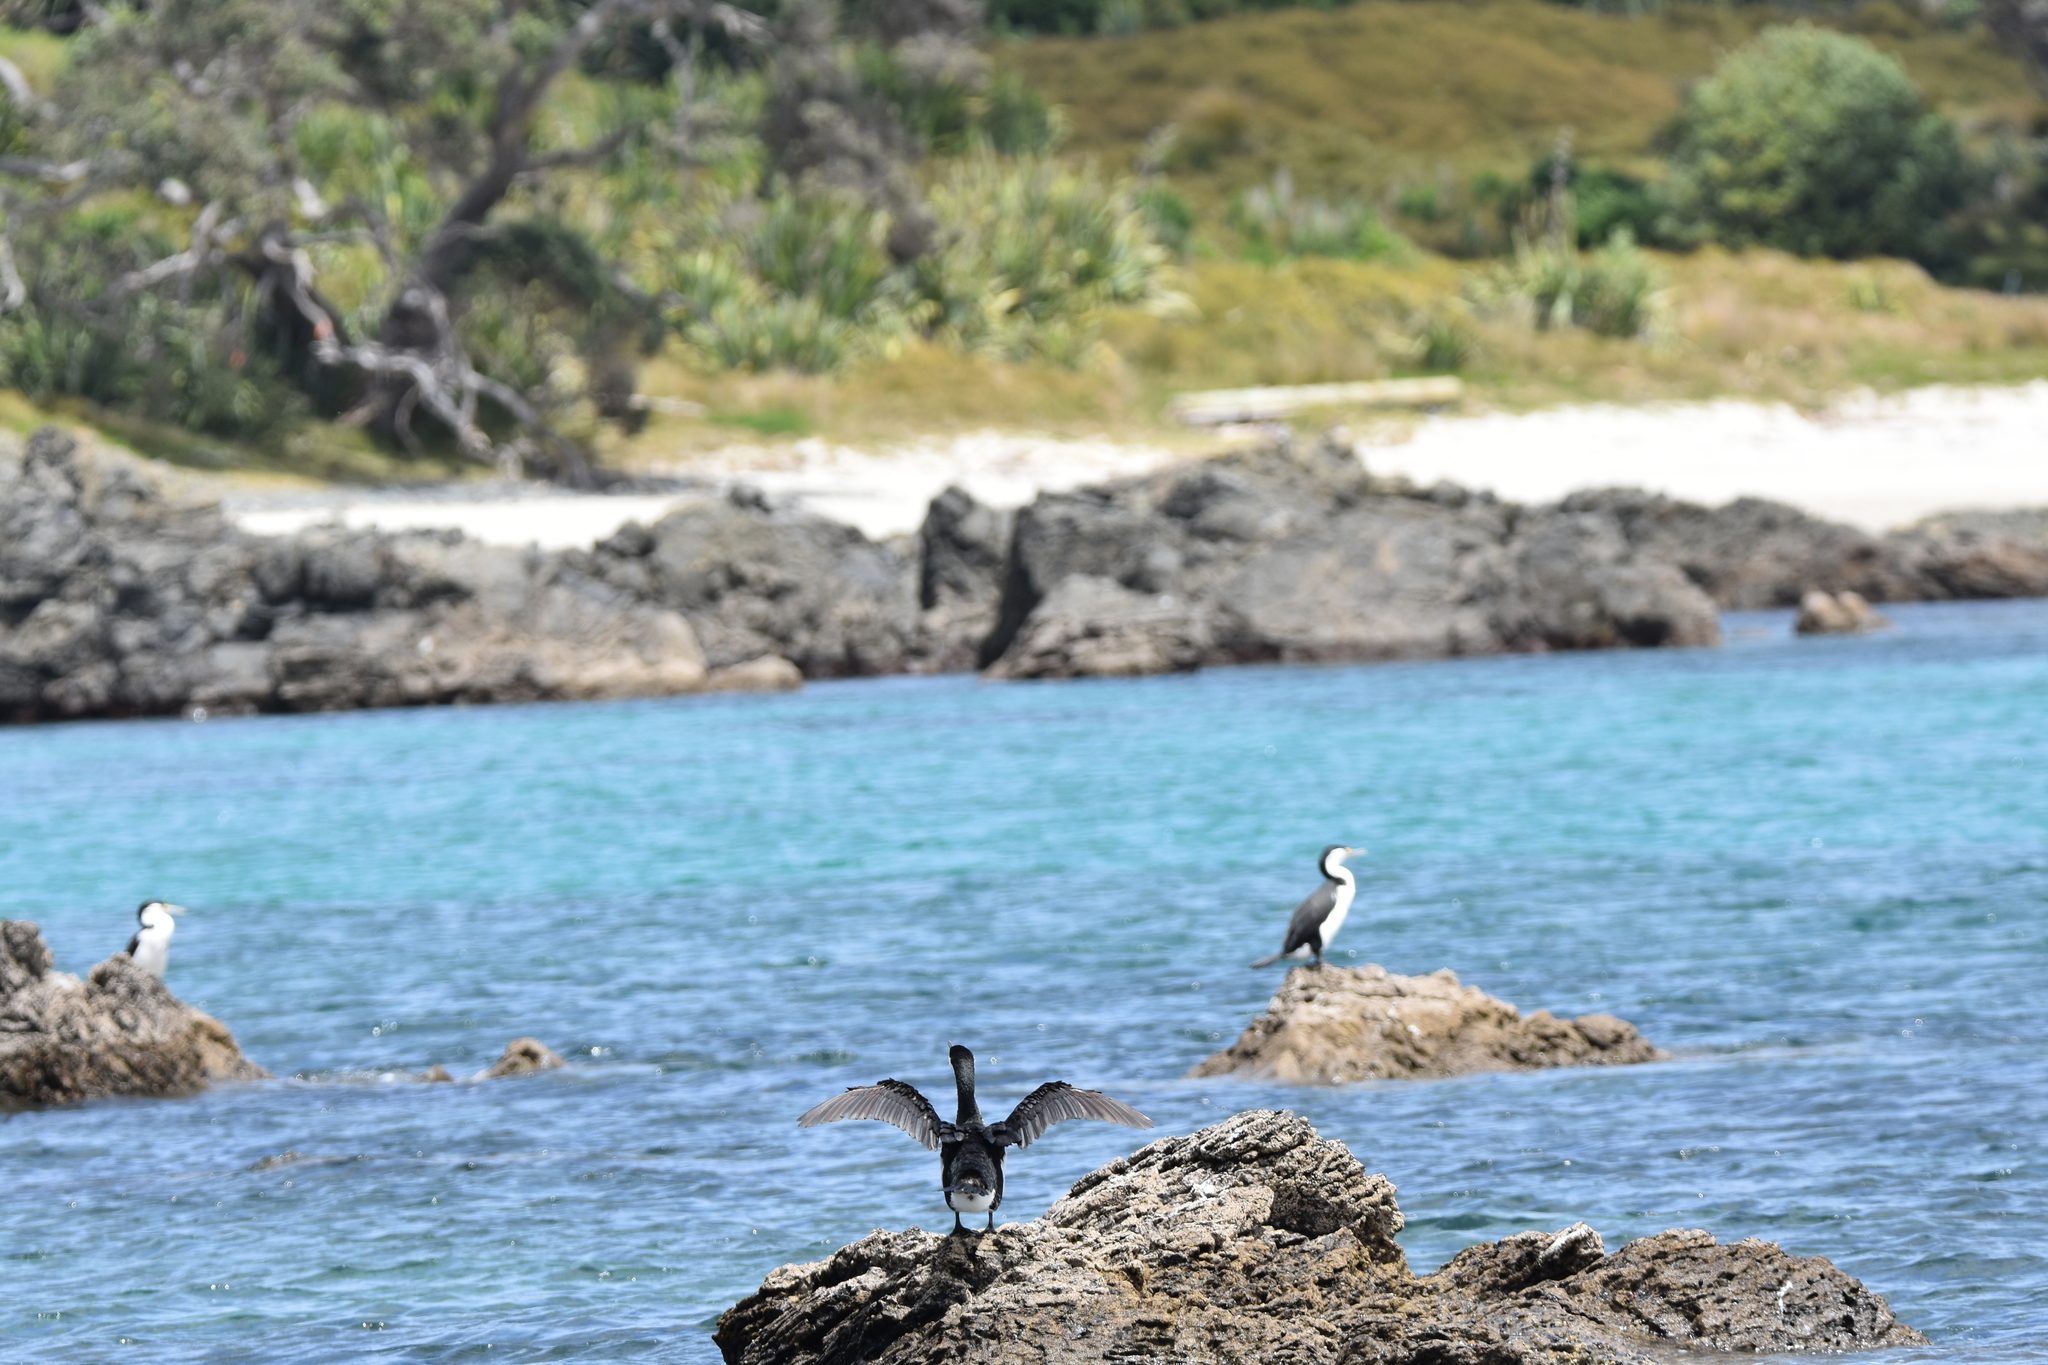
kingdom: Animalia
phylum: Chordata
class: Aves
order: Suliformes
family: Phalacrocoracidae
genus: Phalacrocorax
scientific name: Phalacrocorax varius
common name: Pied cormorant
